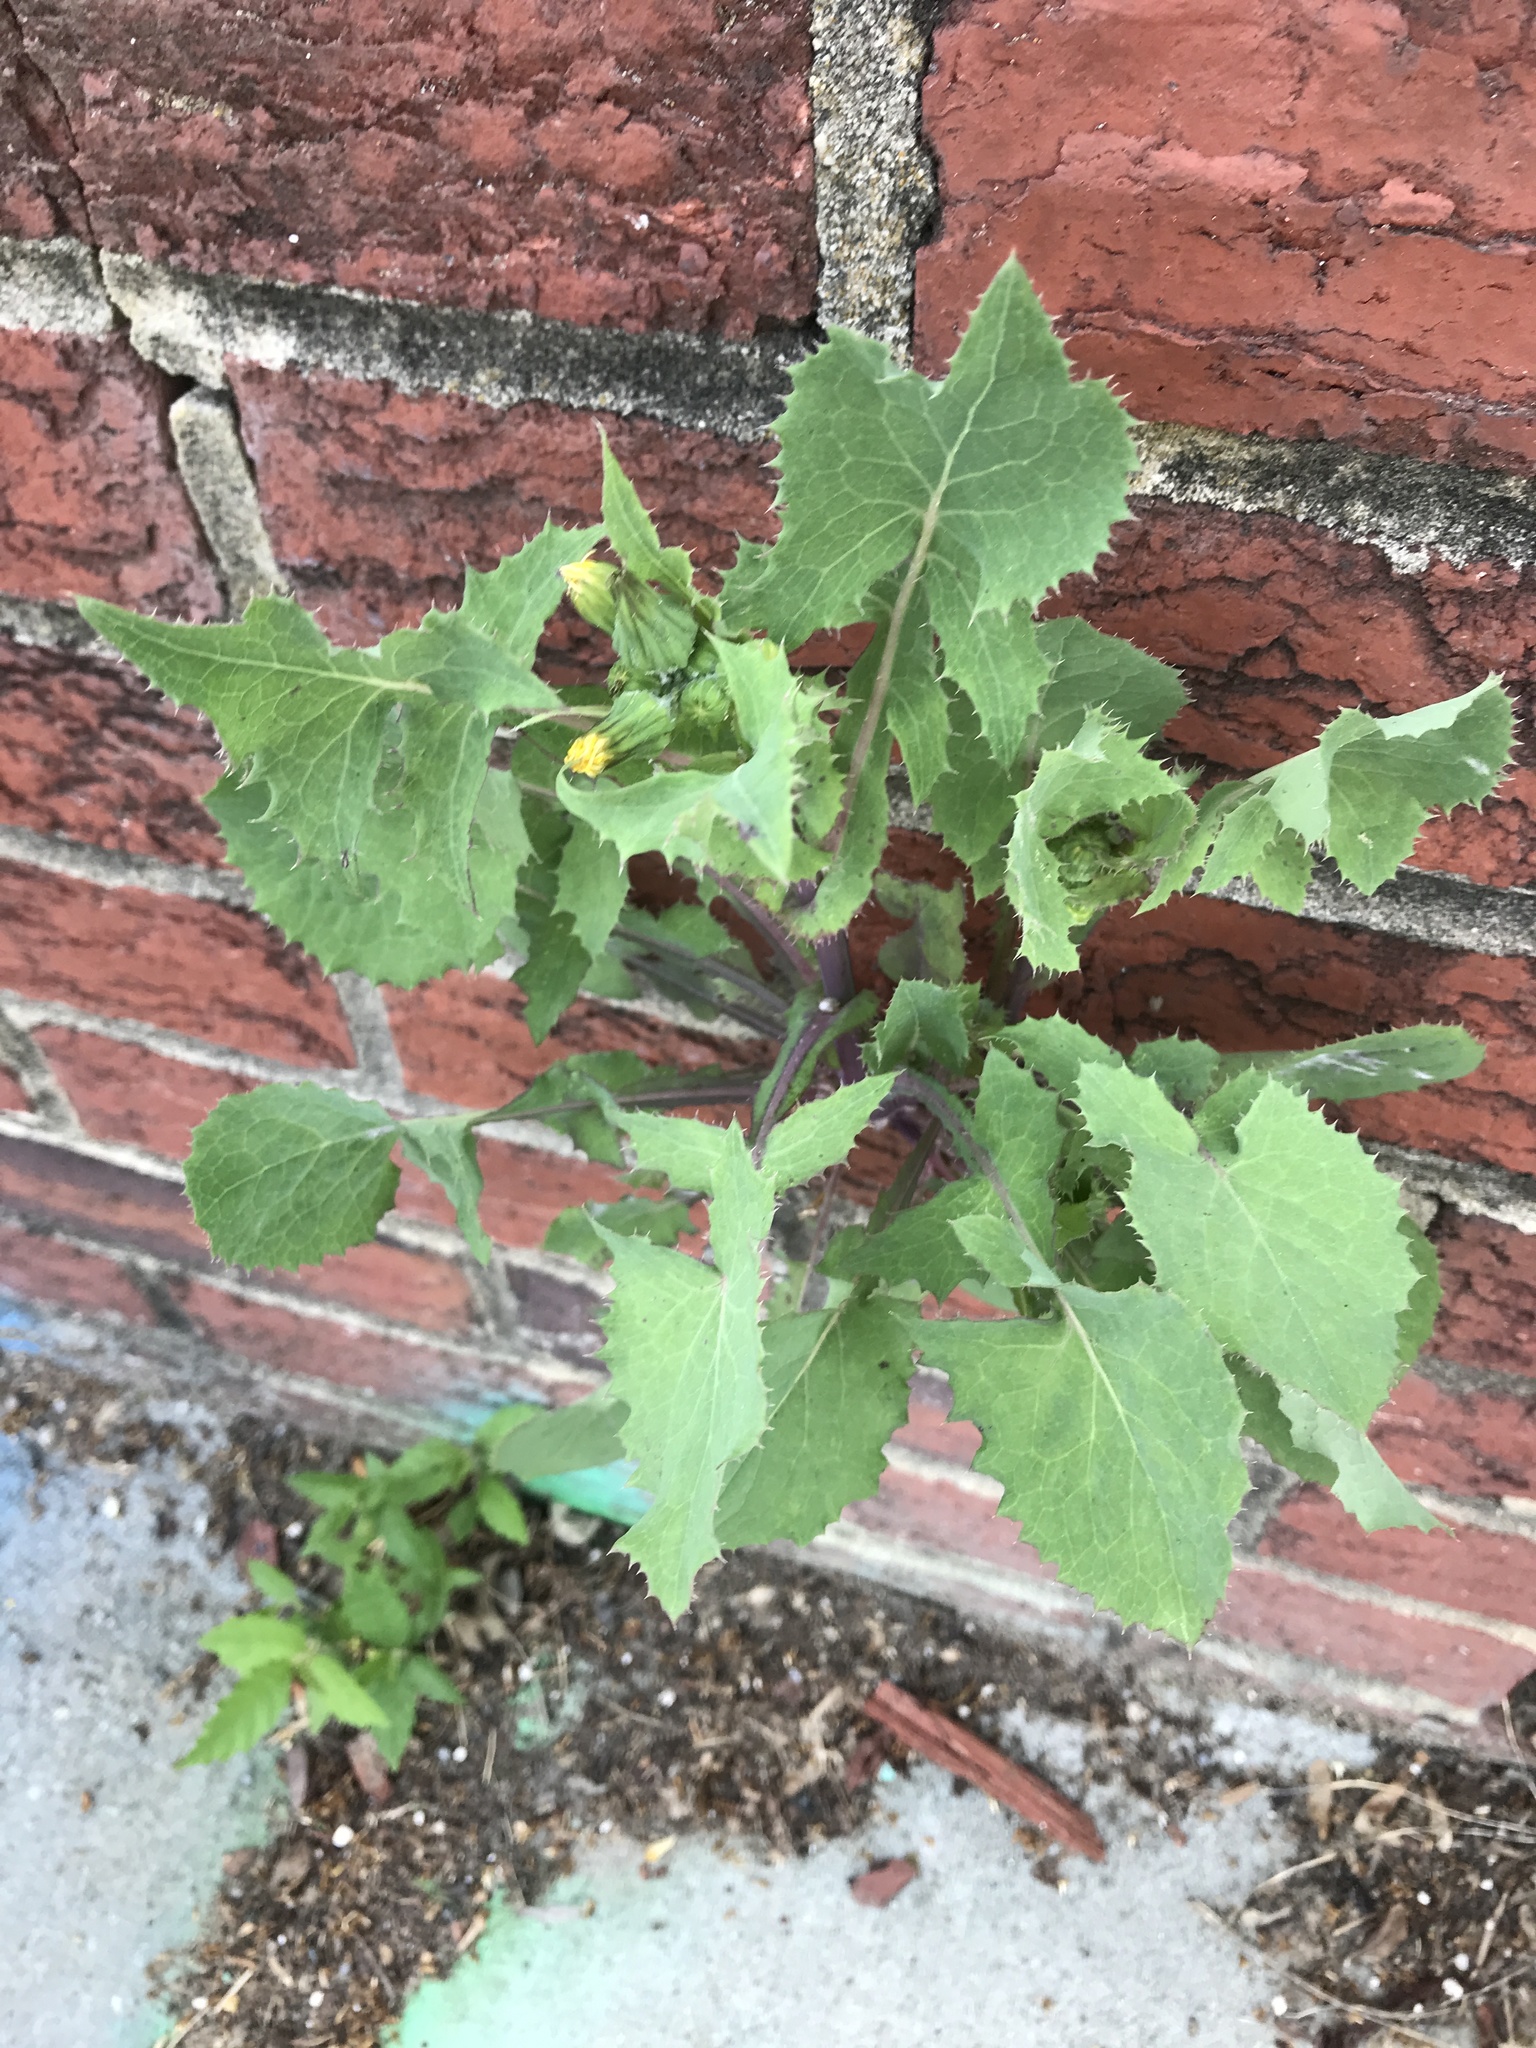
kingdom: Plantae
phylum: Tracheophyta
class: Magnoliopsida
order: Asterales
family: Asteraceae
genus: Sonchus
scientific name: Sonchus oleraceus
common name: Common sowthistle
